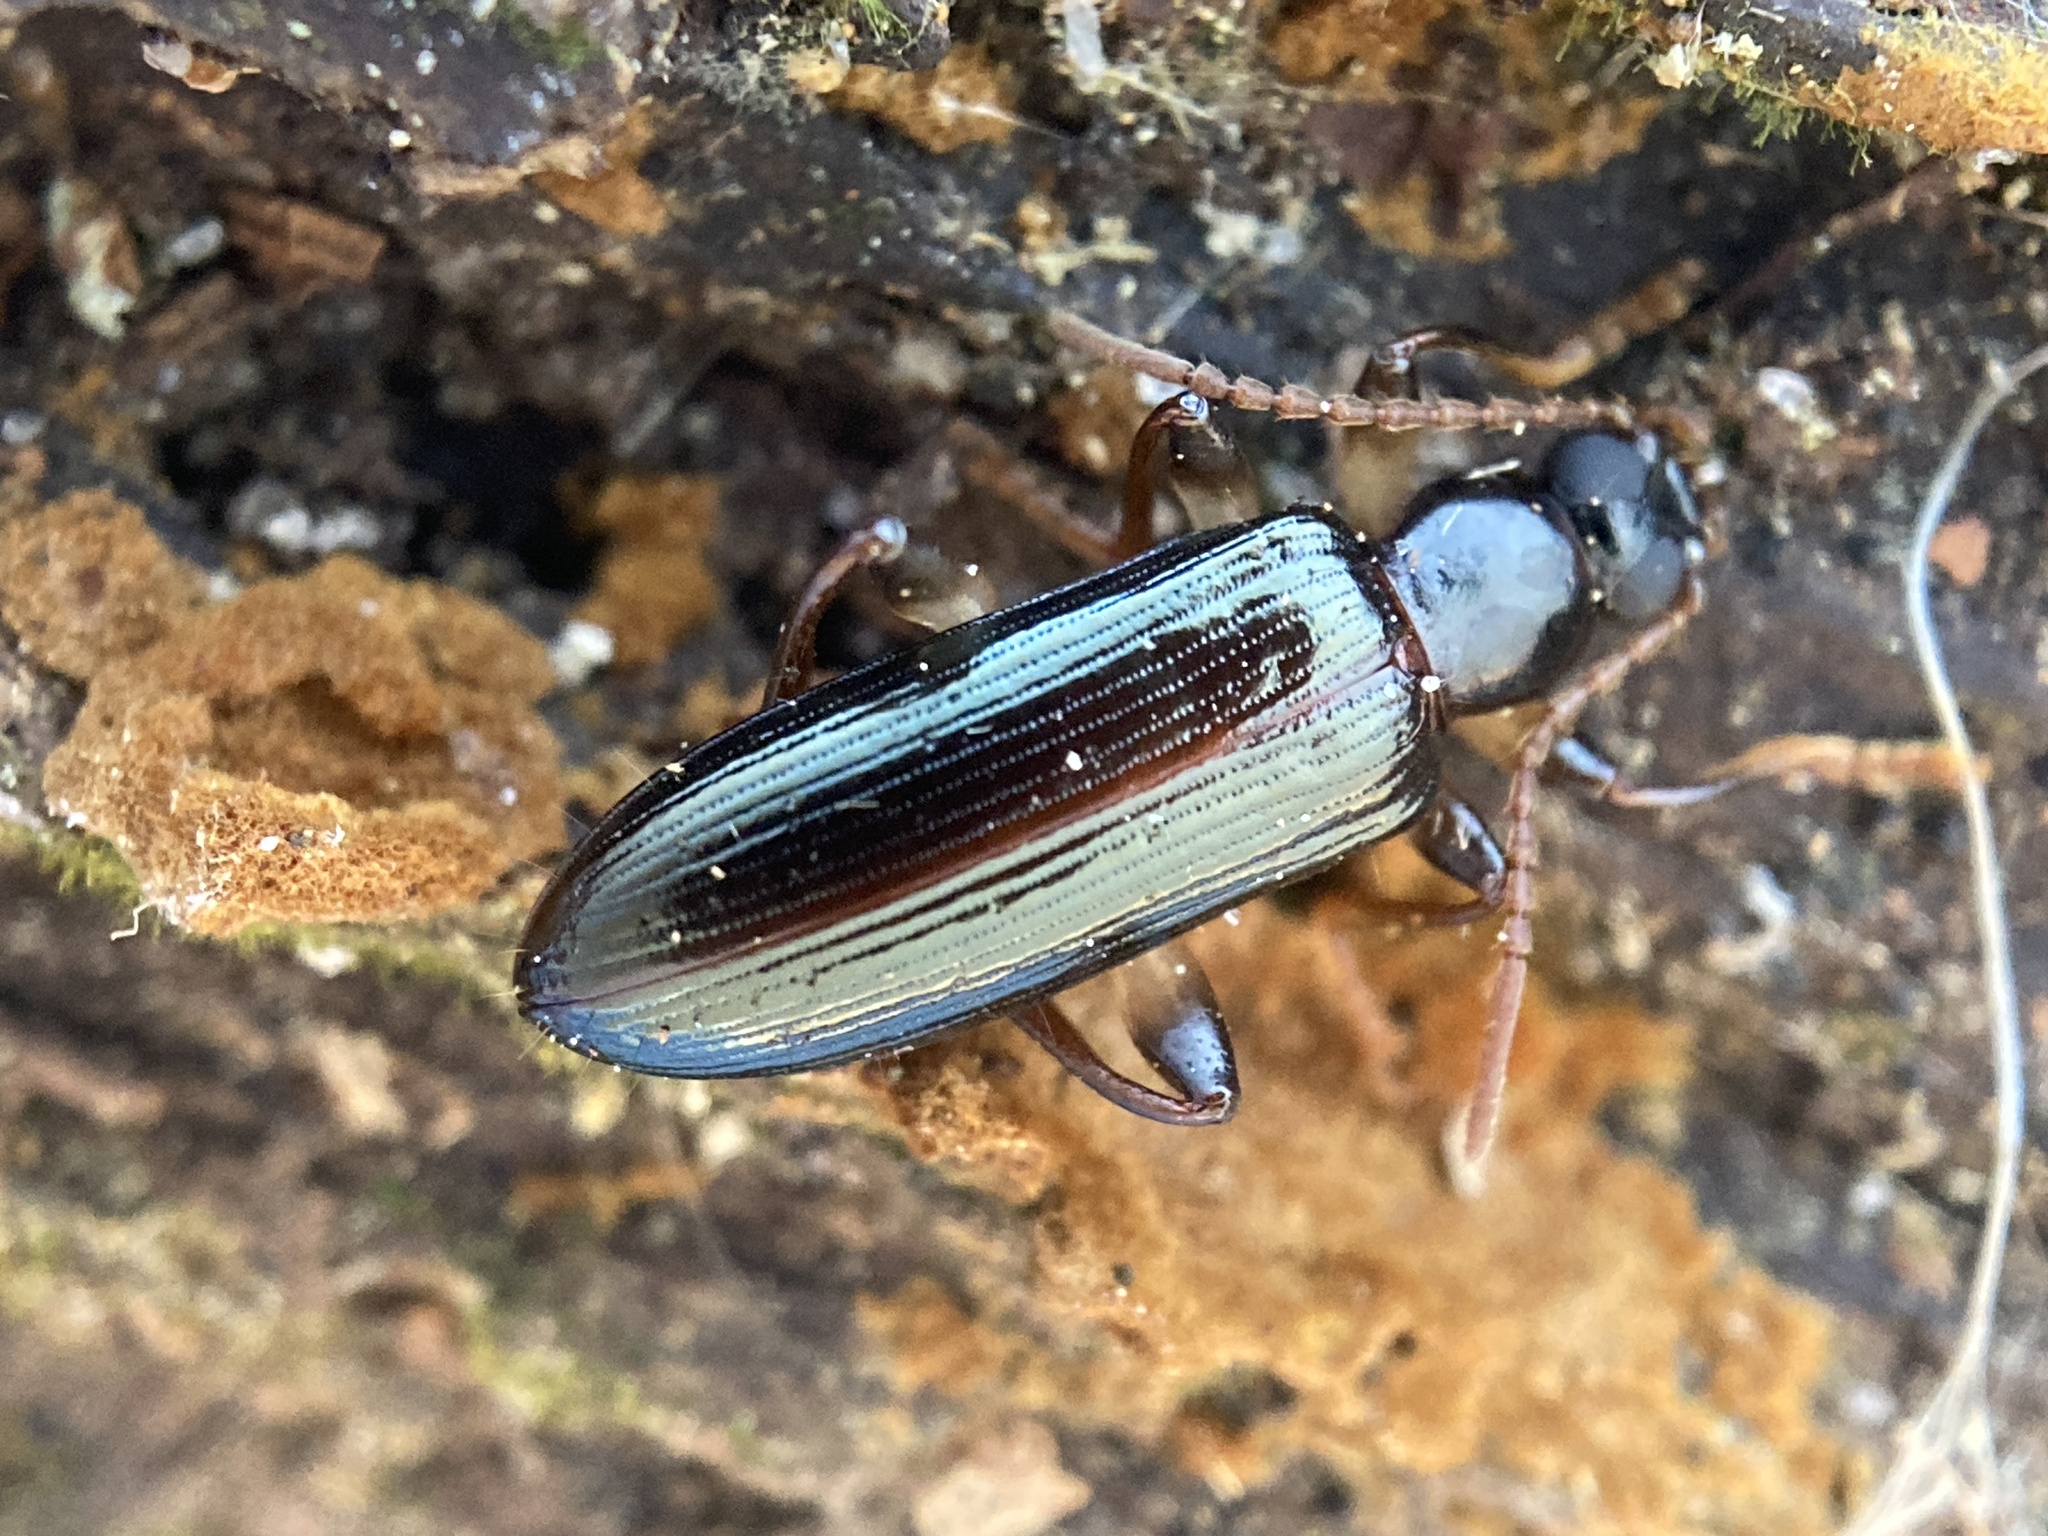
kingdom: Animalia
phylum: Arthropoda
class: Insecta
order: Coleoptera
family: Tenebrionidae
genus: Statira
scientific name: Statira basalis
